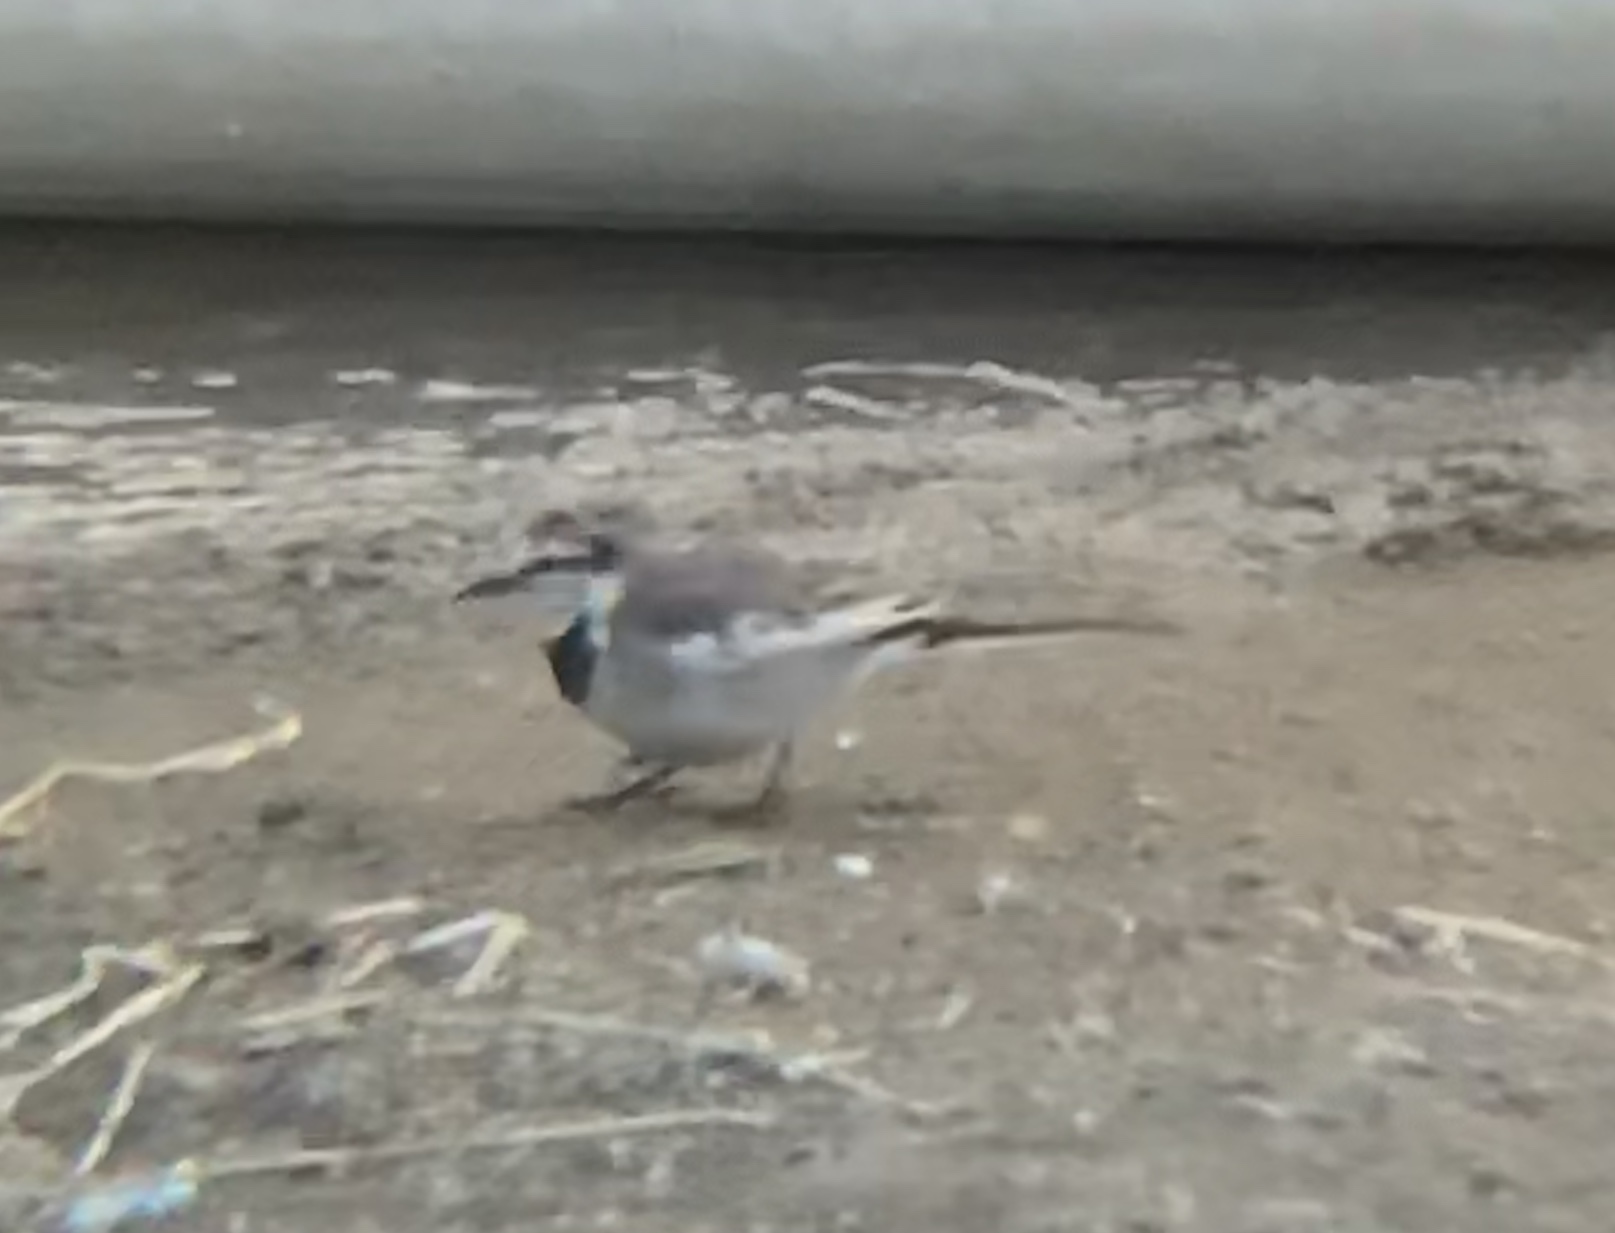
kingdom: Animalia
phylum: Chordata
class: Aves
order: Passeriformes
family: Motacillidae
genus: Motacilla
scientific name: Motacilla alba
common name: White wagtail
